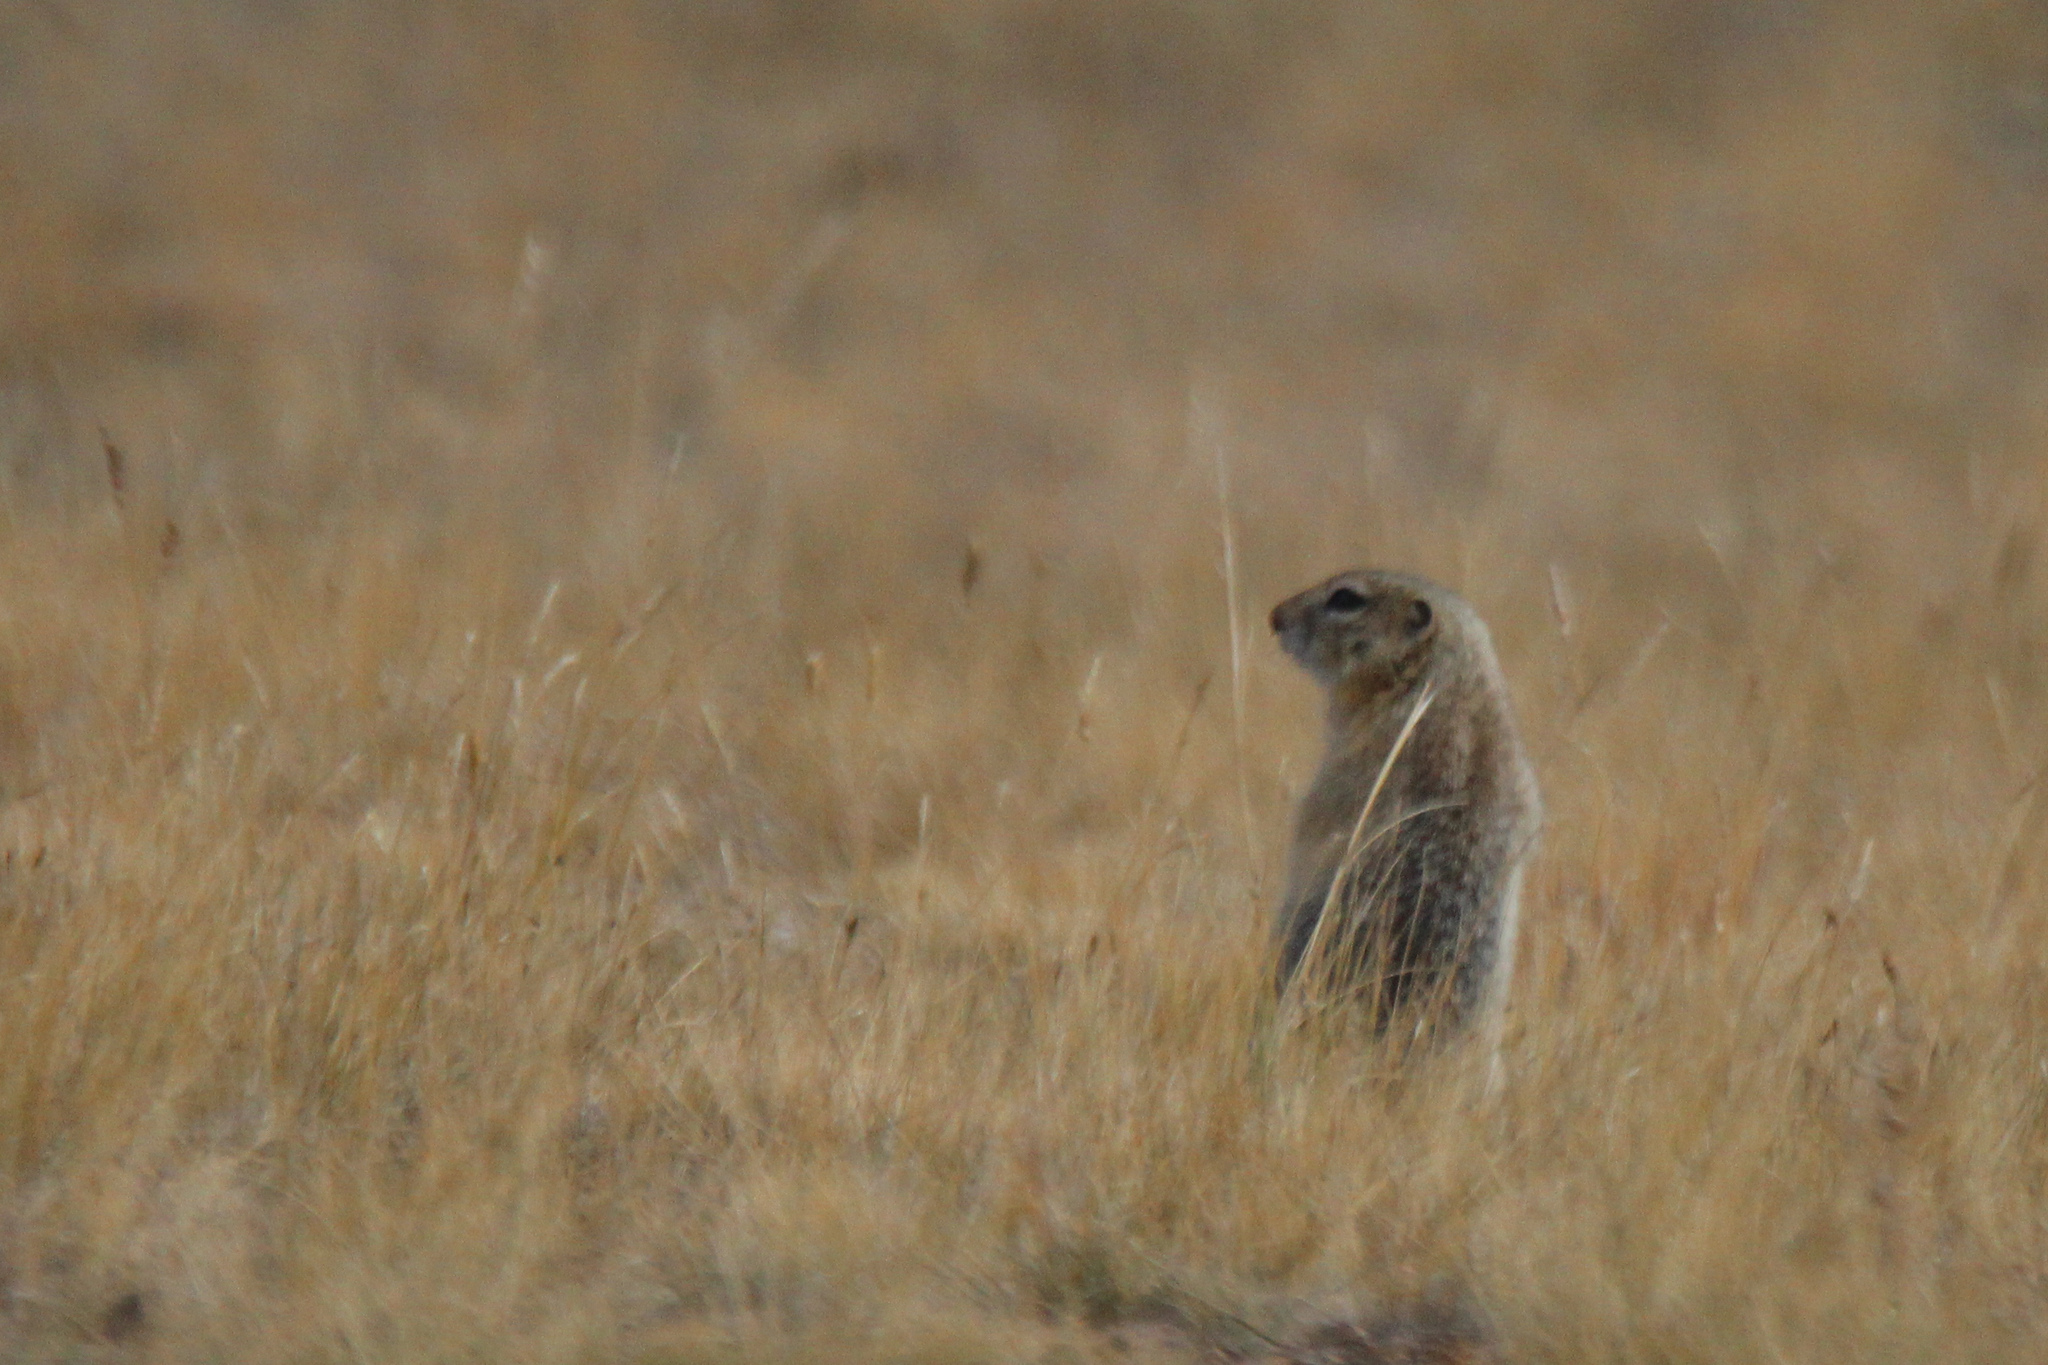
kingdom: Animalia
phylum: Chordata
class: Mammalia
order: Rodentia
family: Sciuridae
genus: Urocitellus
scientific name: Urocitellus undulatus
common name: Long-tailed ground squirrel
